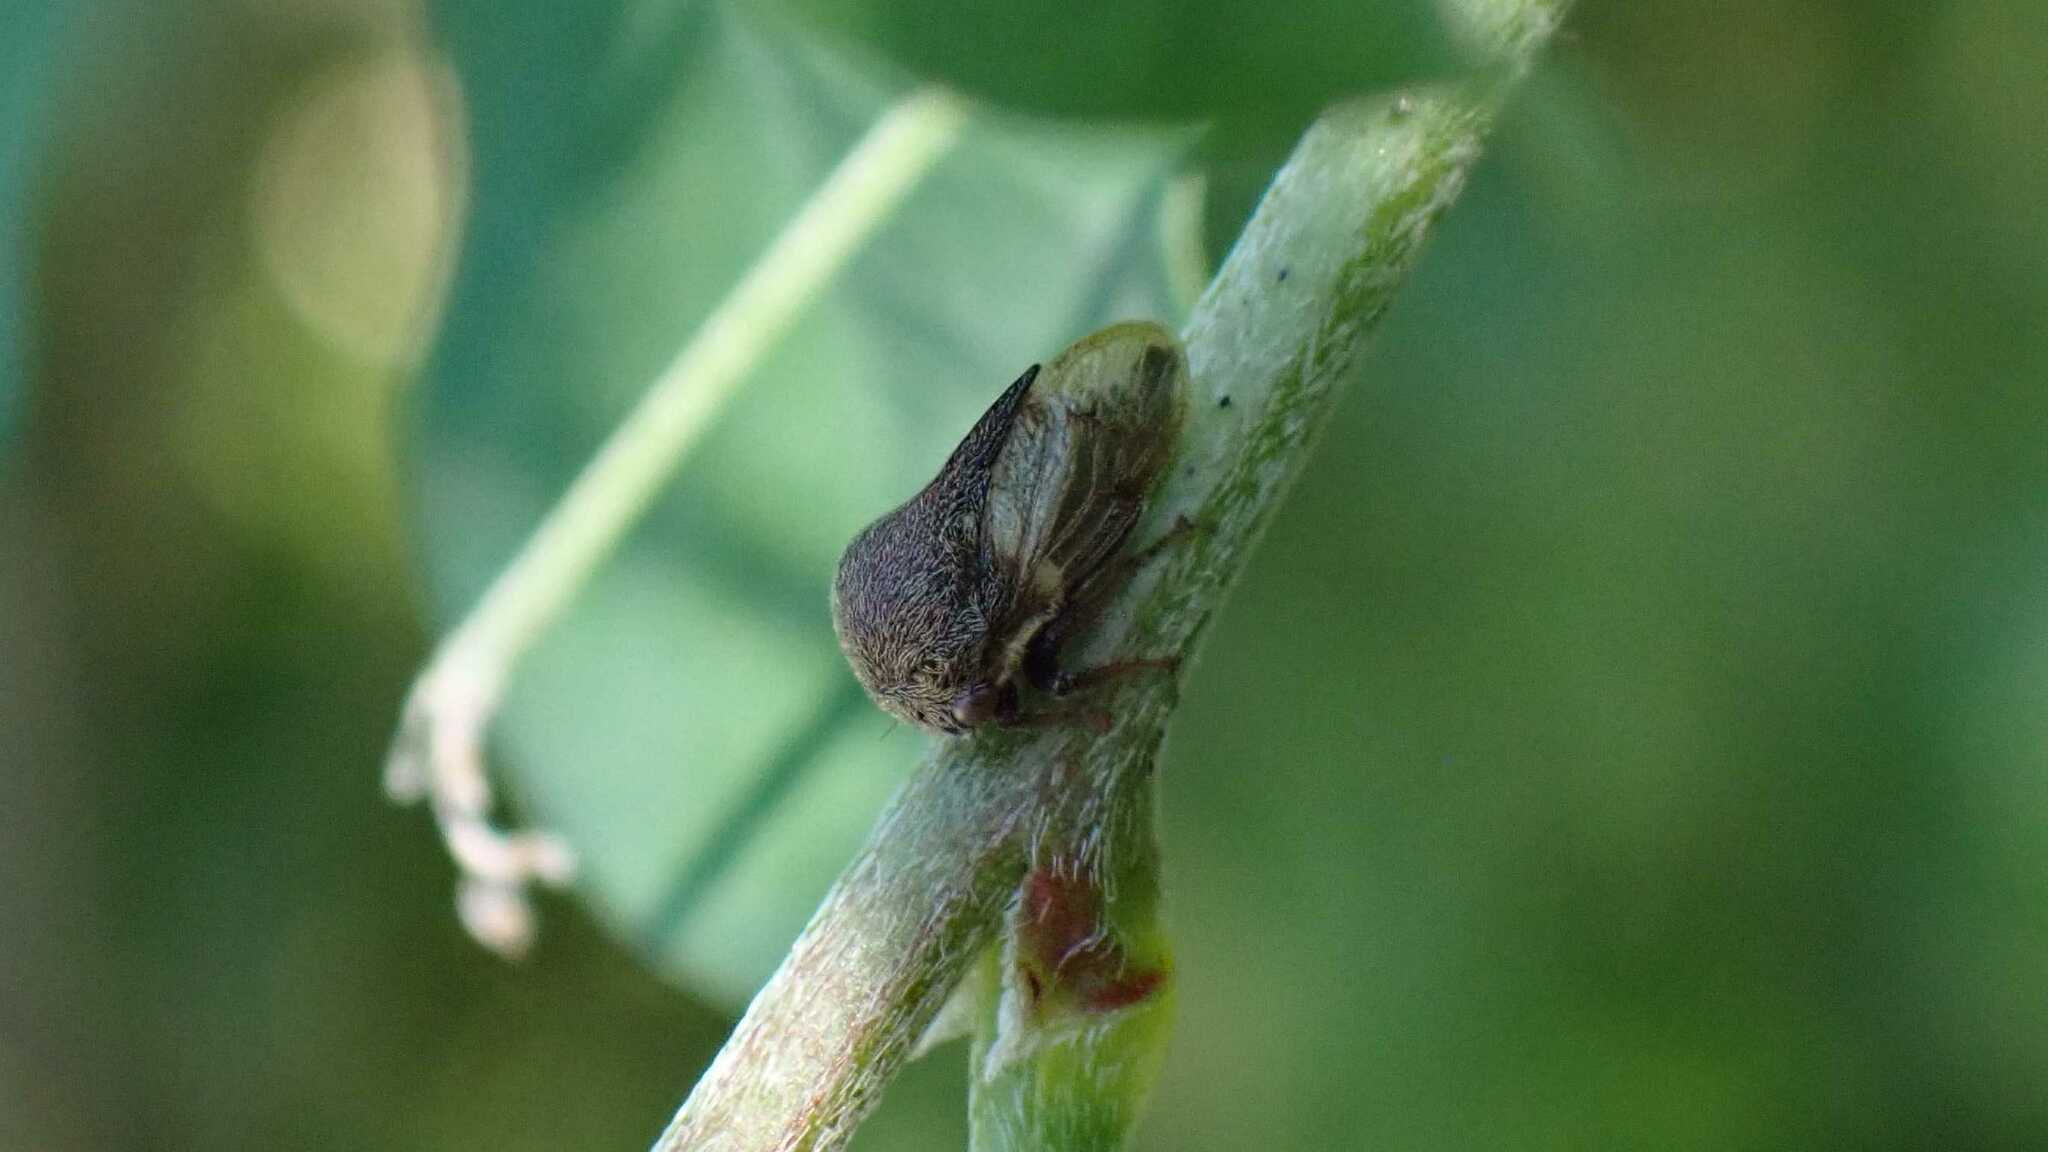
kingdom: Animalia
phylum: Arthropoda
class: Insecta
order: Hemiptera
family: Membracidae
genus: Gargara
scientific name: Gargara genistae
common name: Treehopper
